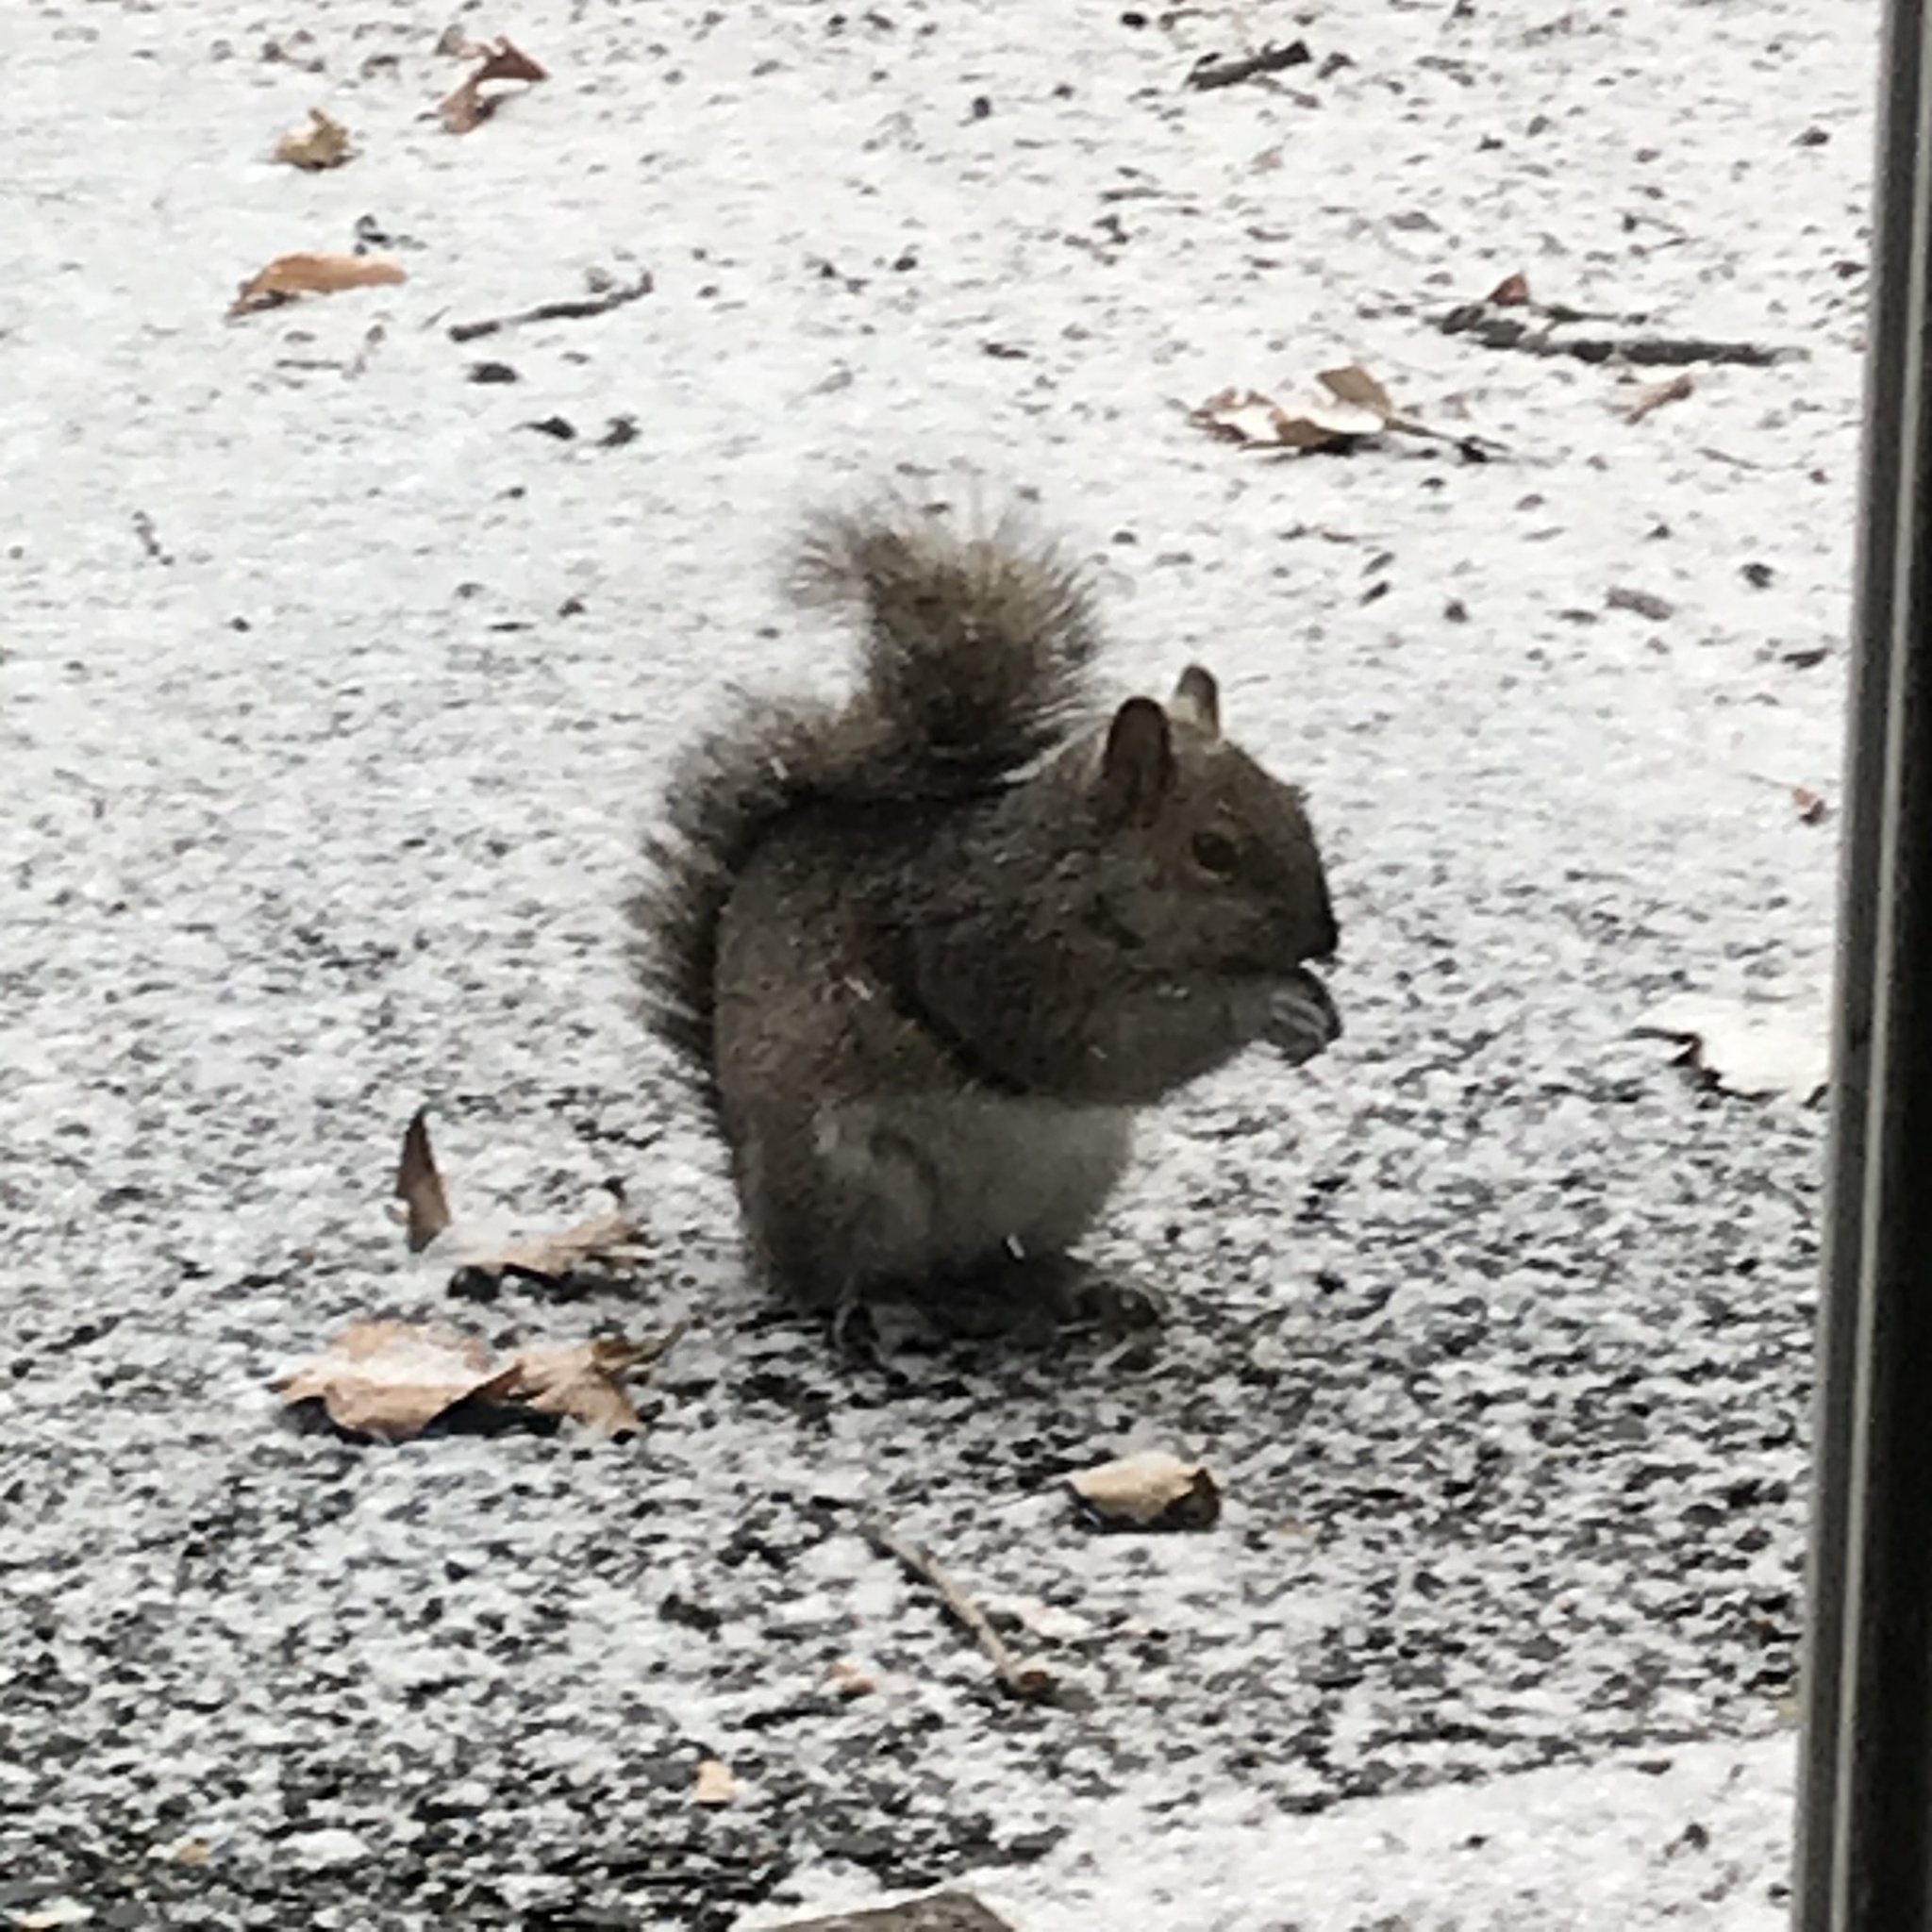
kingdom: Animalia
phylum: Chordata
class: Mammalia
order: Rodentia
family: Sciuridae
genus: Sciurus
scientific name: Sciurus carolinensis
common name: Eastern gray squirrel
